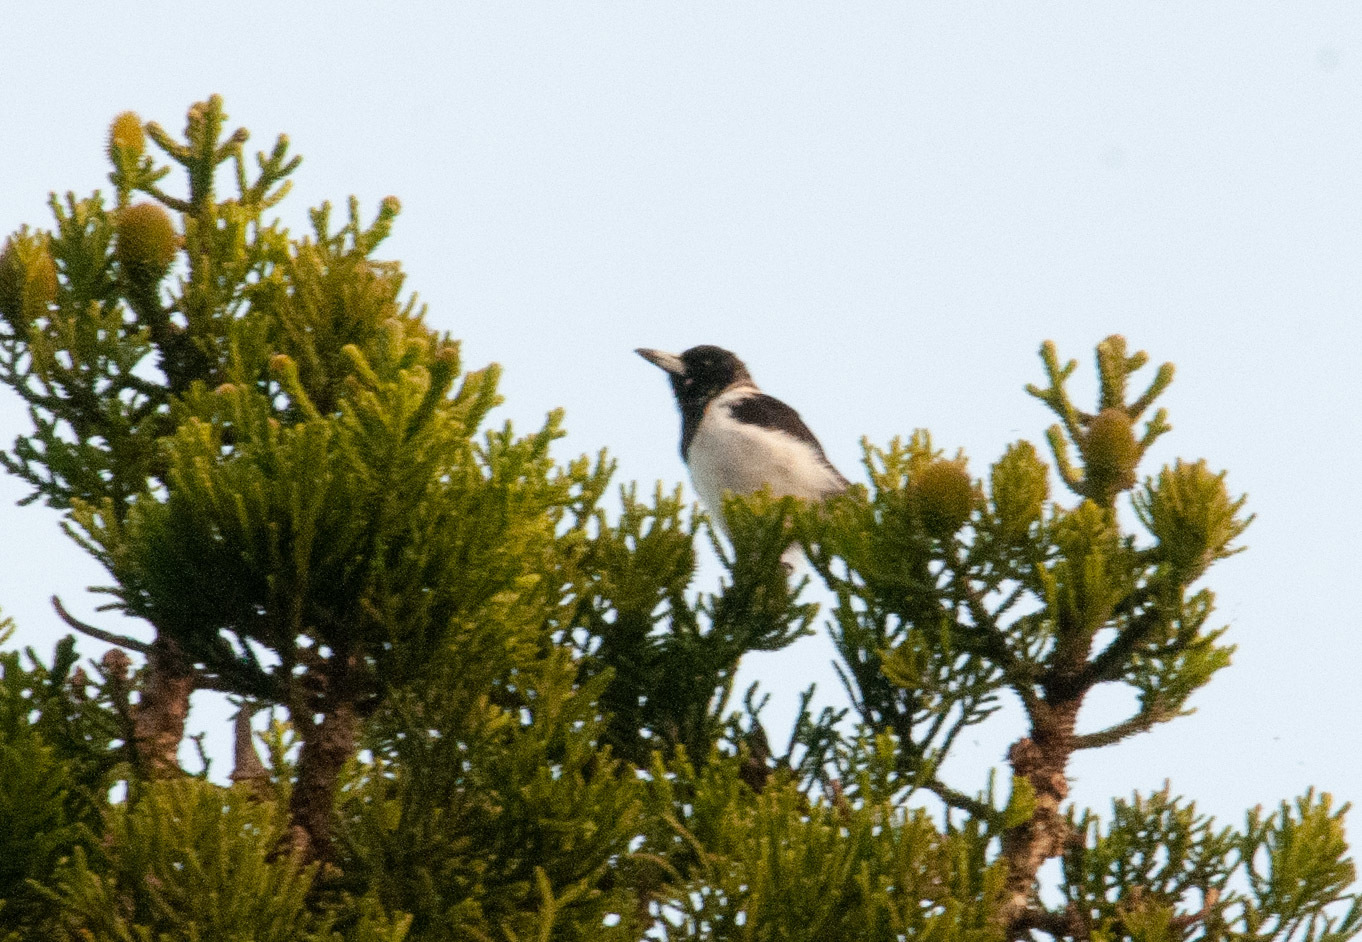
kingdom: Animalia
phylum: Chordata
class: Aves
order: Passeriformes
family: Cracticidae
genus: Cracticus
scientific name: Cracticus nigrogularis
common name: Pied butcherbird
